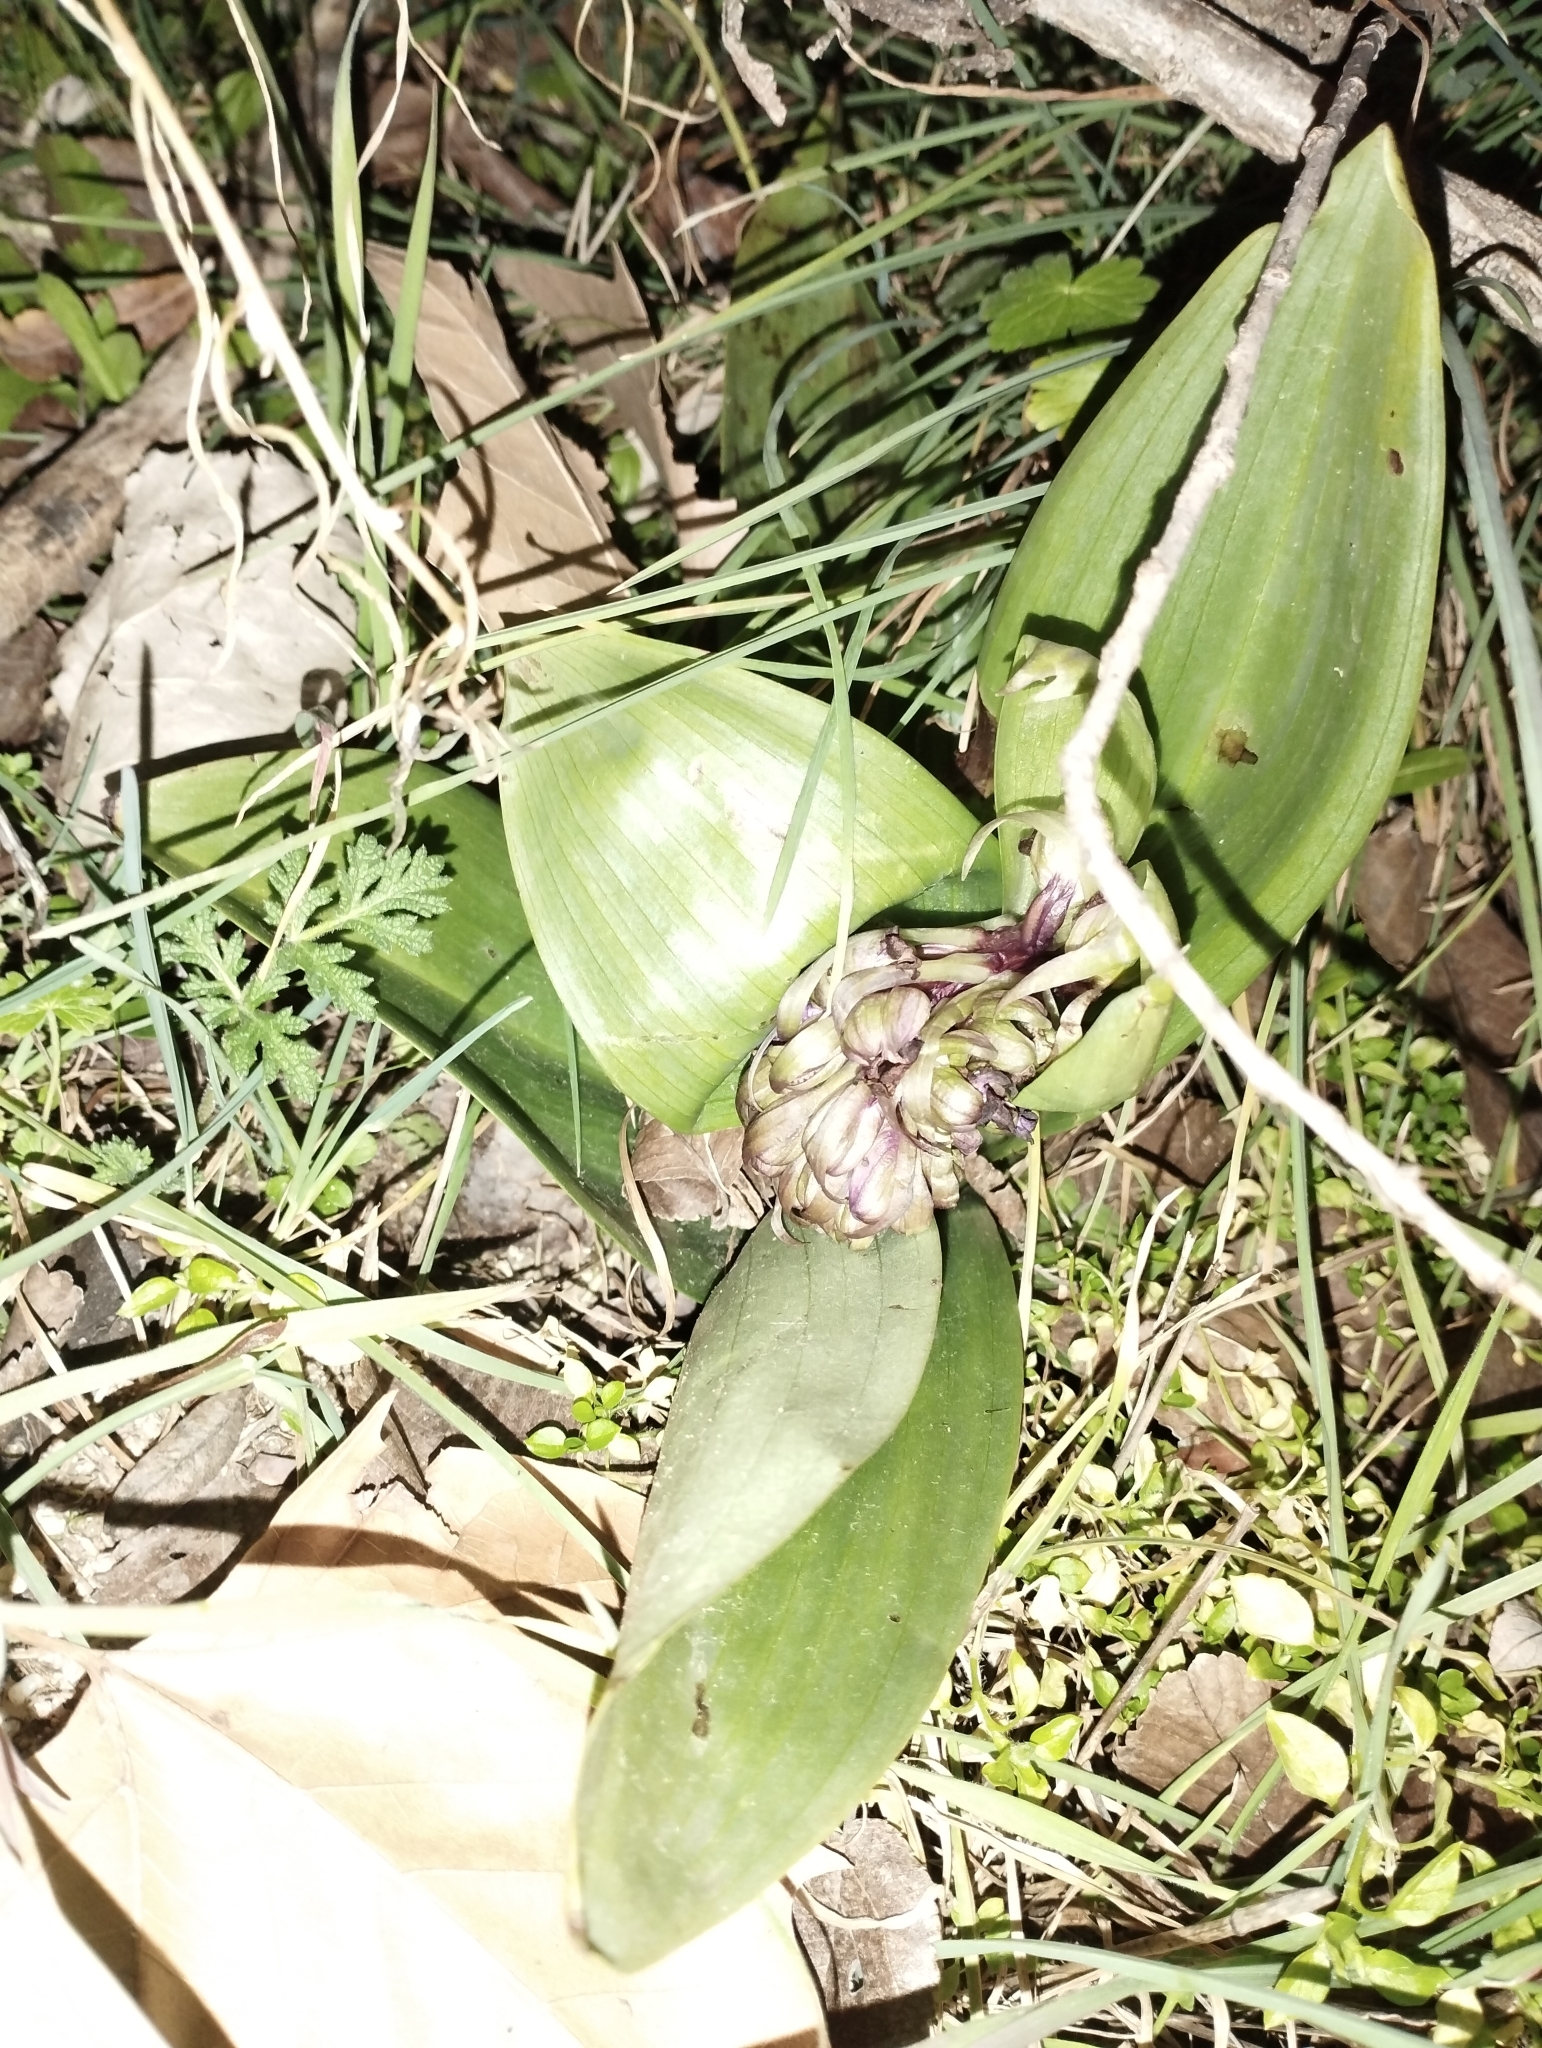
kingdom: Plantae
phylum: Tracheophyta
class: Liliopsida
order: Asparagales
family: Orchidaceae
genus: Himantoglossum
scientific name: Himantoglossum robertianum
